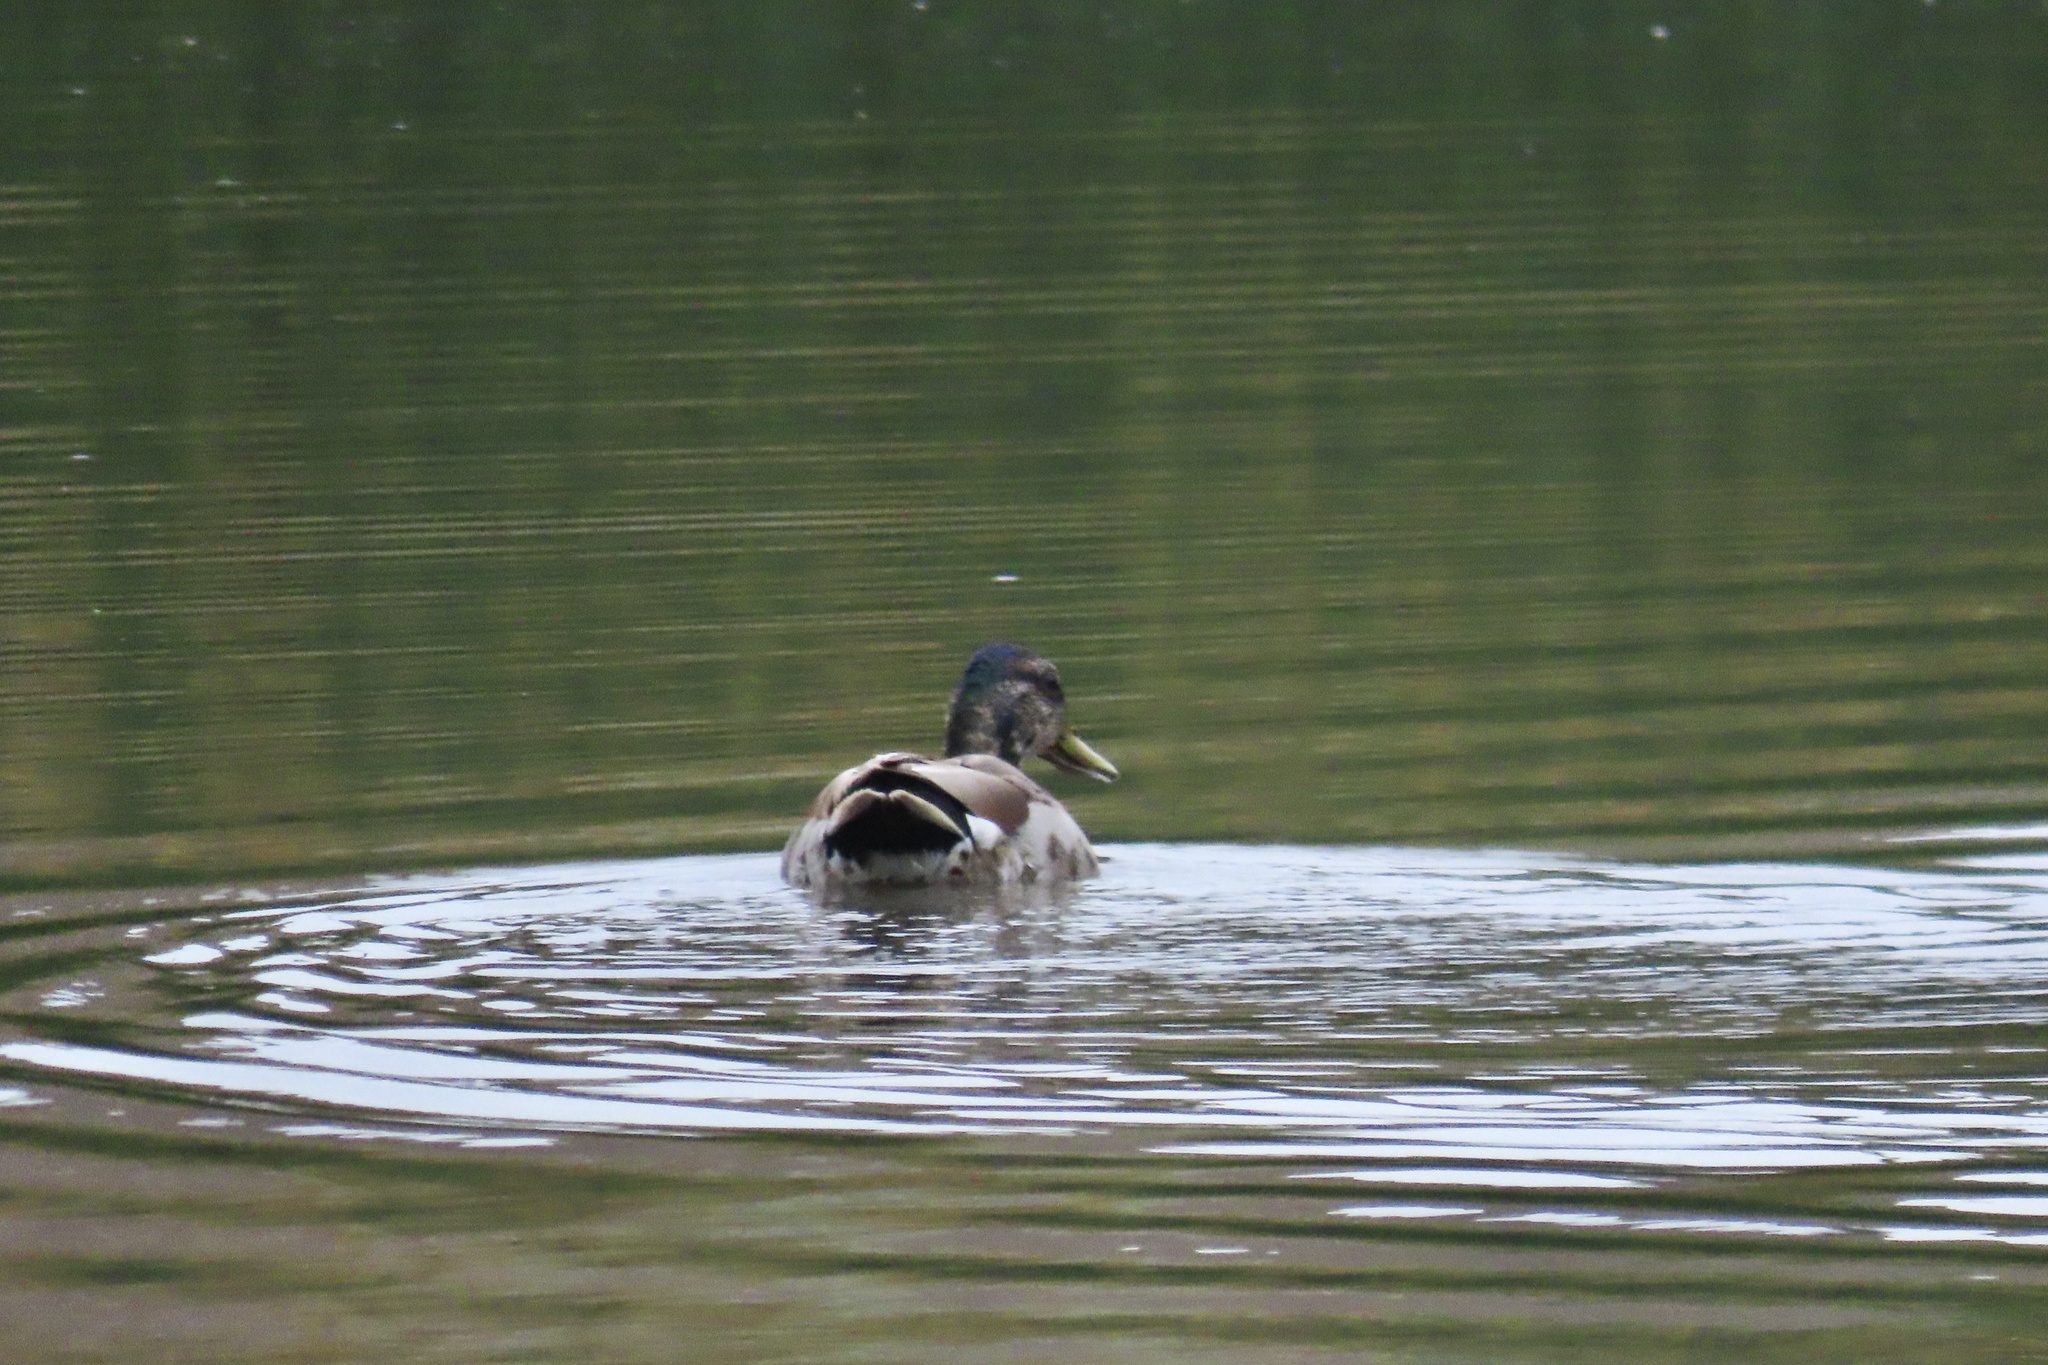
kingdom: Animalia
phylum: Chordata
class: Aves
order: Anseriformes
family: Anatidae
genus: Anas
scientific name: Anas platyrhynchos
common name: Mallard
